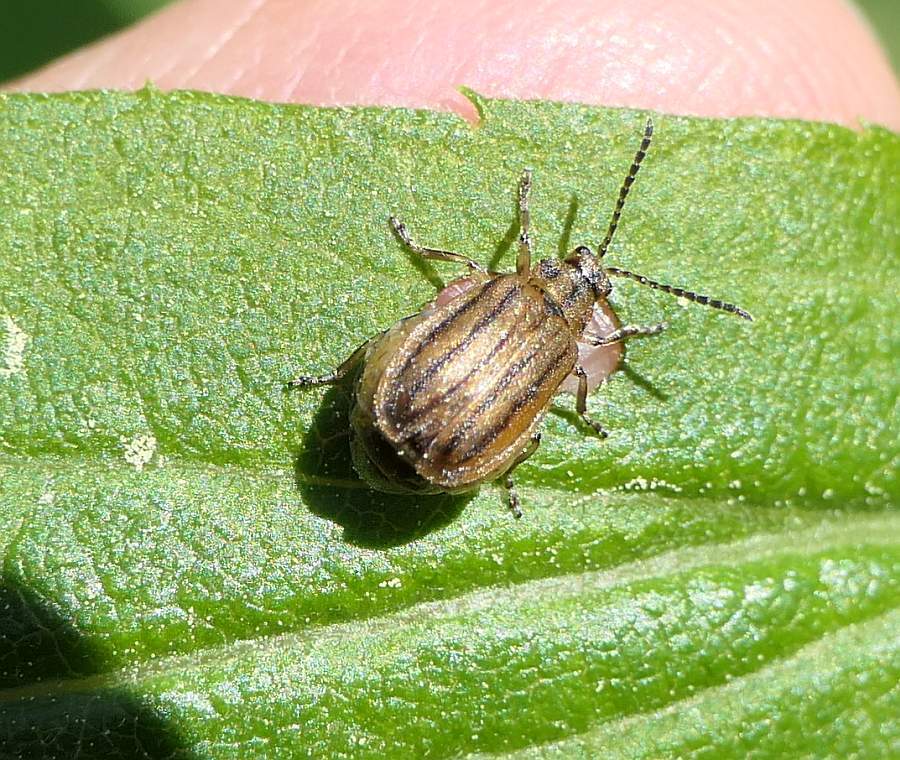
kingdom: Animalia
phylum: Arthropoda
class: Insecta
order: Coleoptera
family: Chrysomelidae
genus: Ophraella
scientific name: Ophraella conferta
